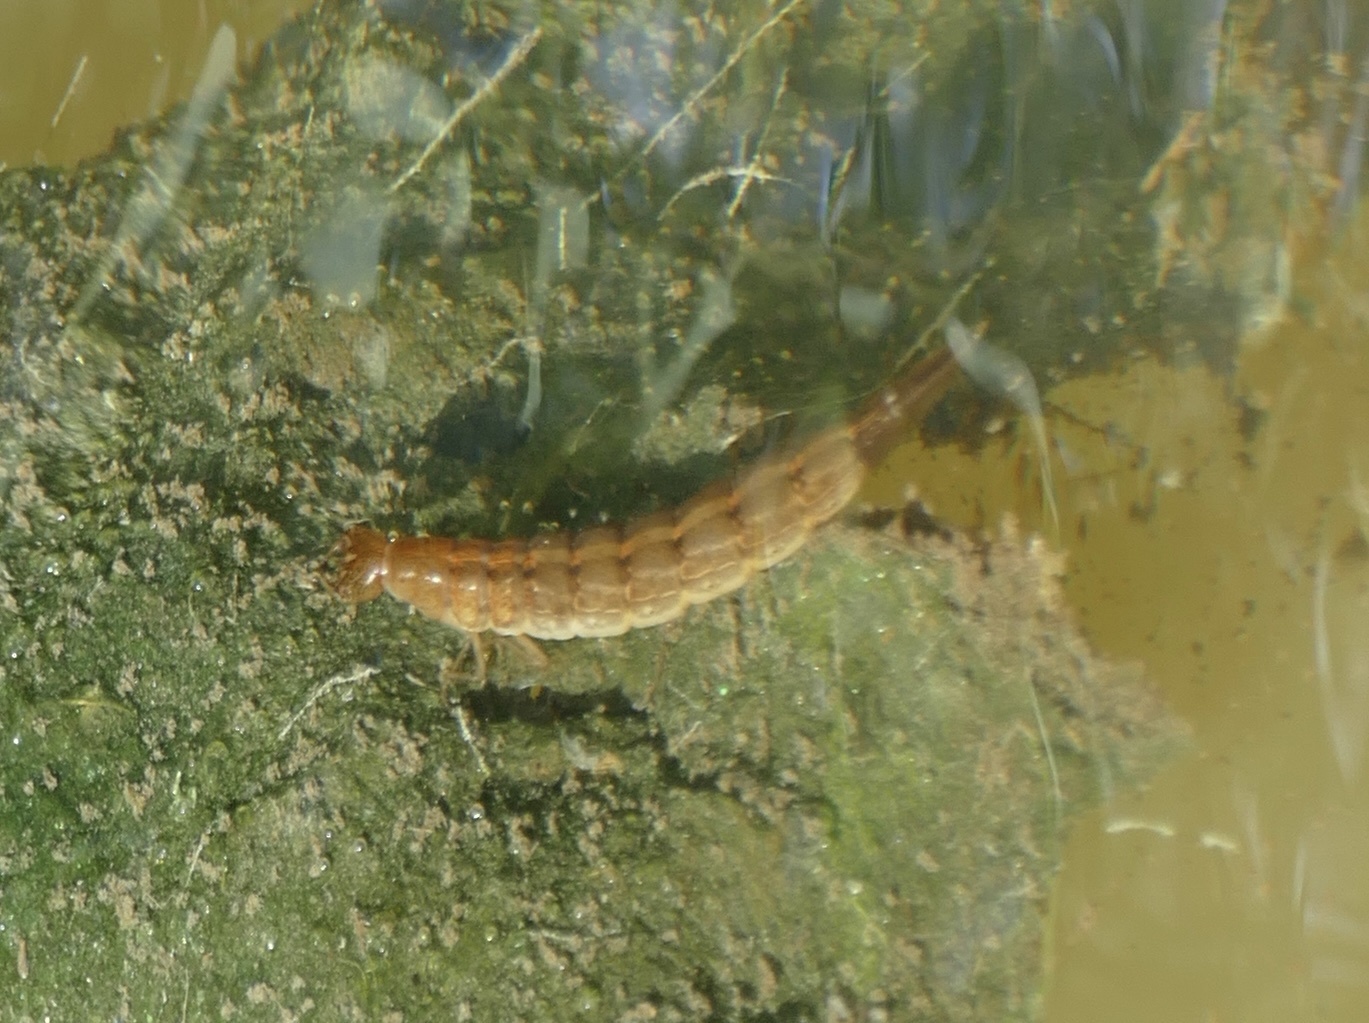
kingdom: Animalia
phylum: Arthropoda
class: Insecta
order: Coleoptera
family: Dytiscidae
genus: Cybister
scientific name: Cybister lateralimarginalis
